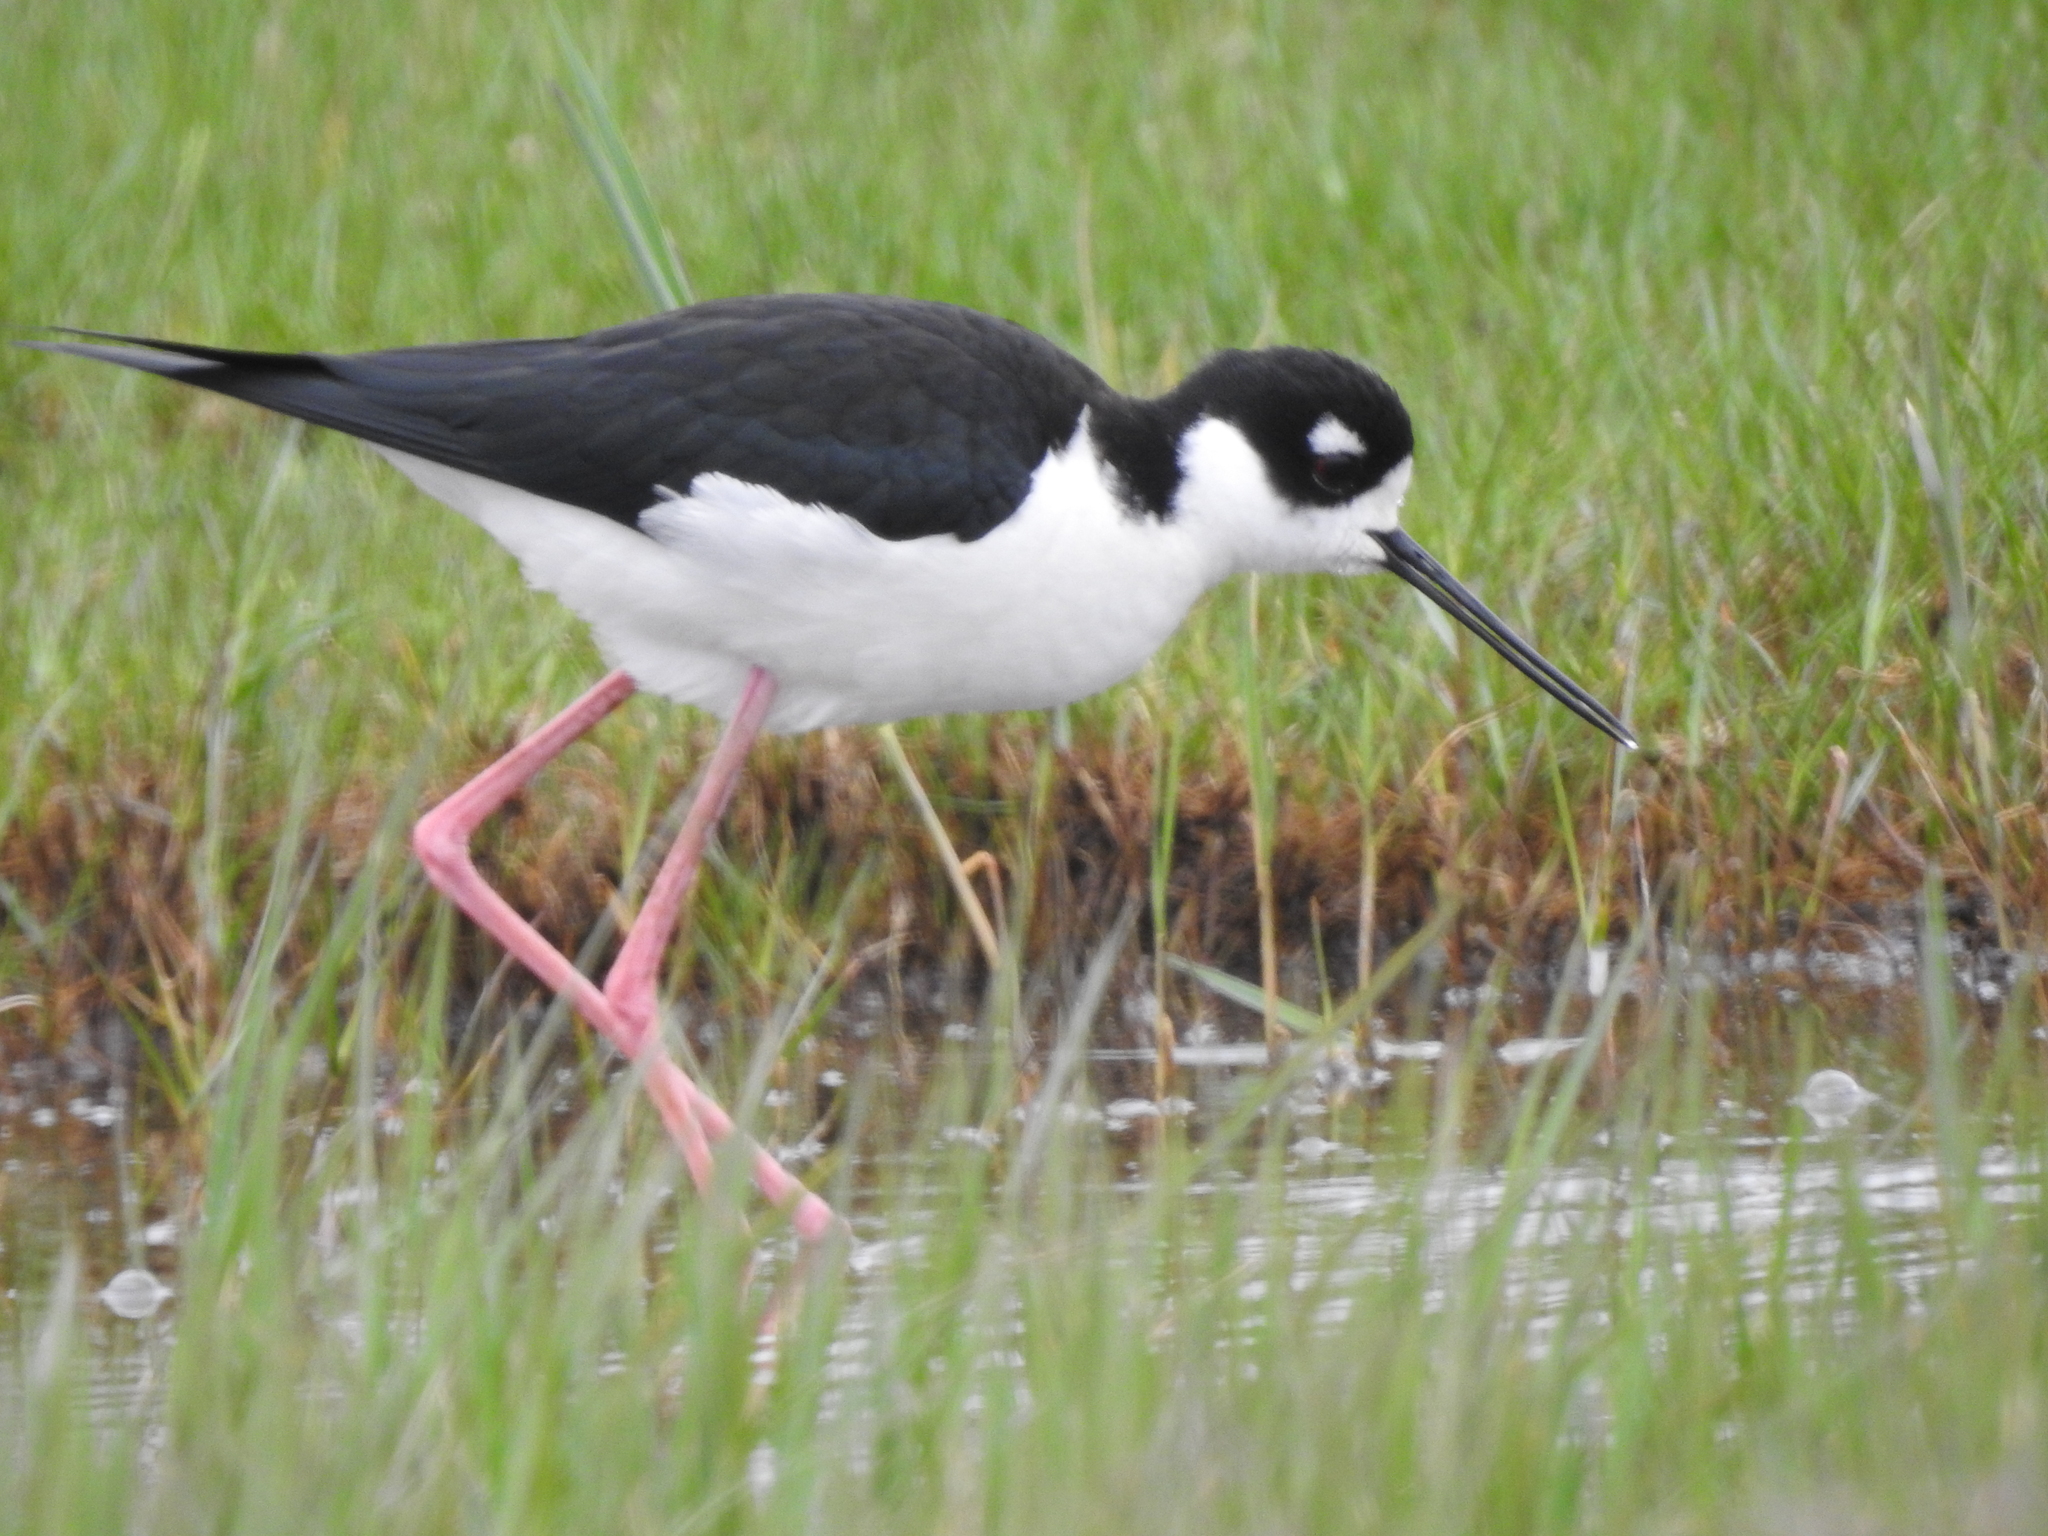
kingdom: Animalia
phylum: Chordata
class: Aves
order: Charadriiformes
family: Recurvirostridae
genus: Himantopus
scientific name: Himantopus mexicanus
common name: Black-necked stilt
